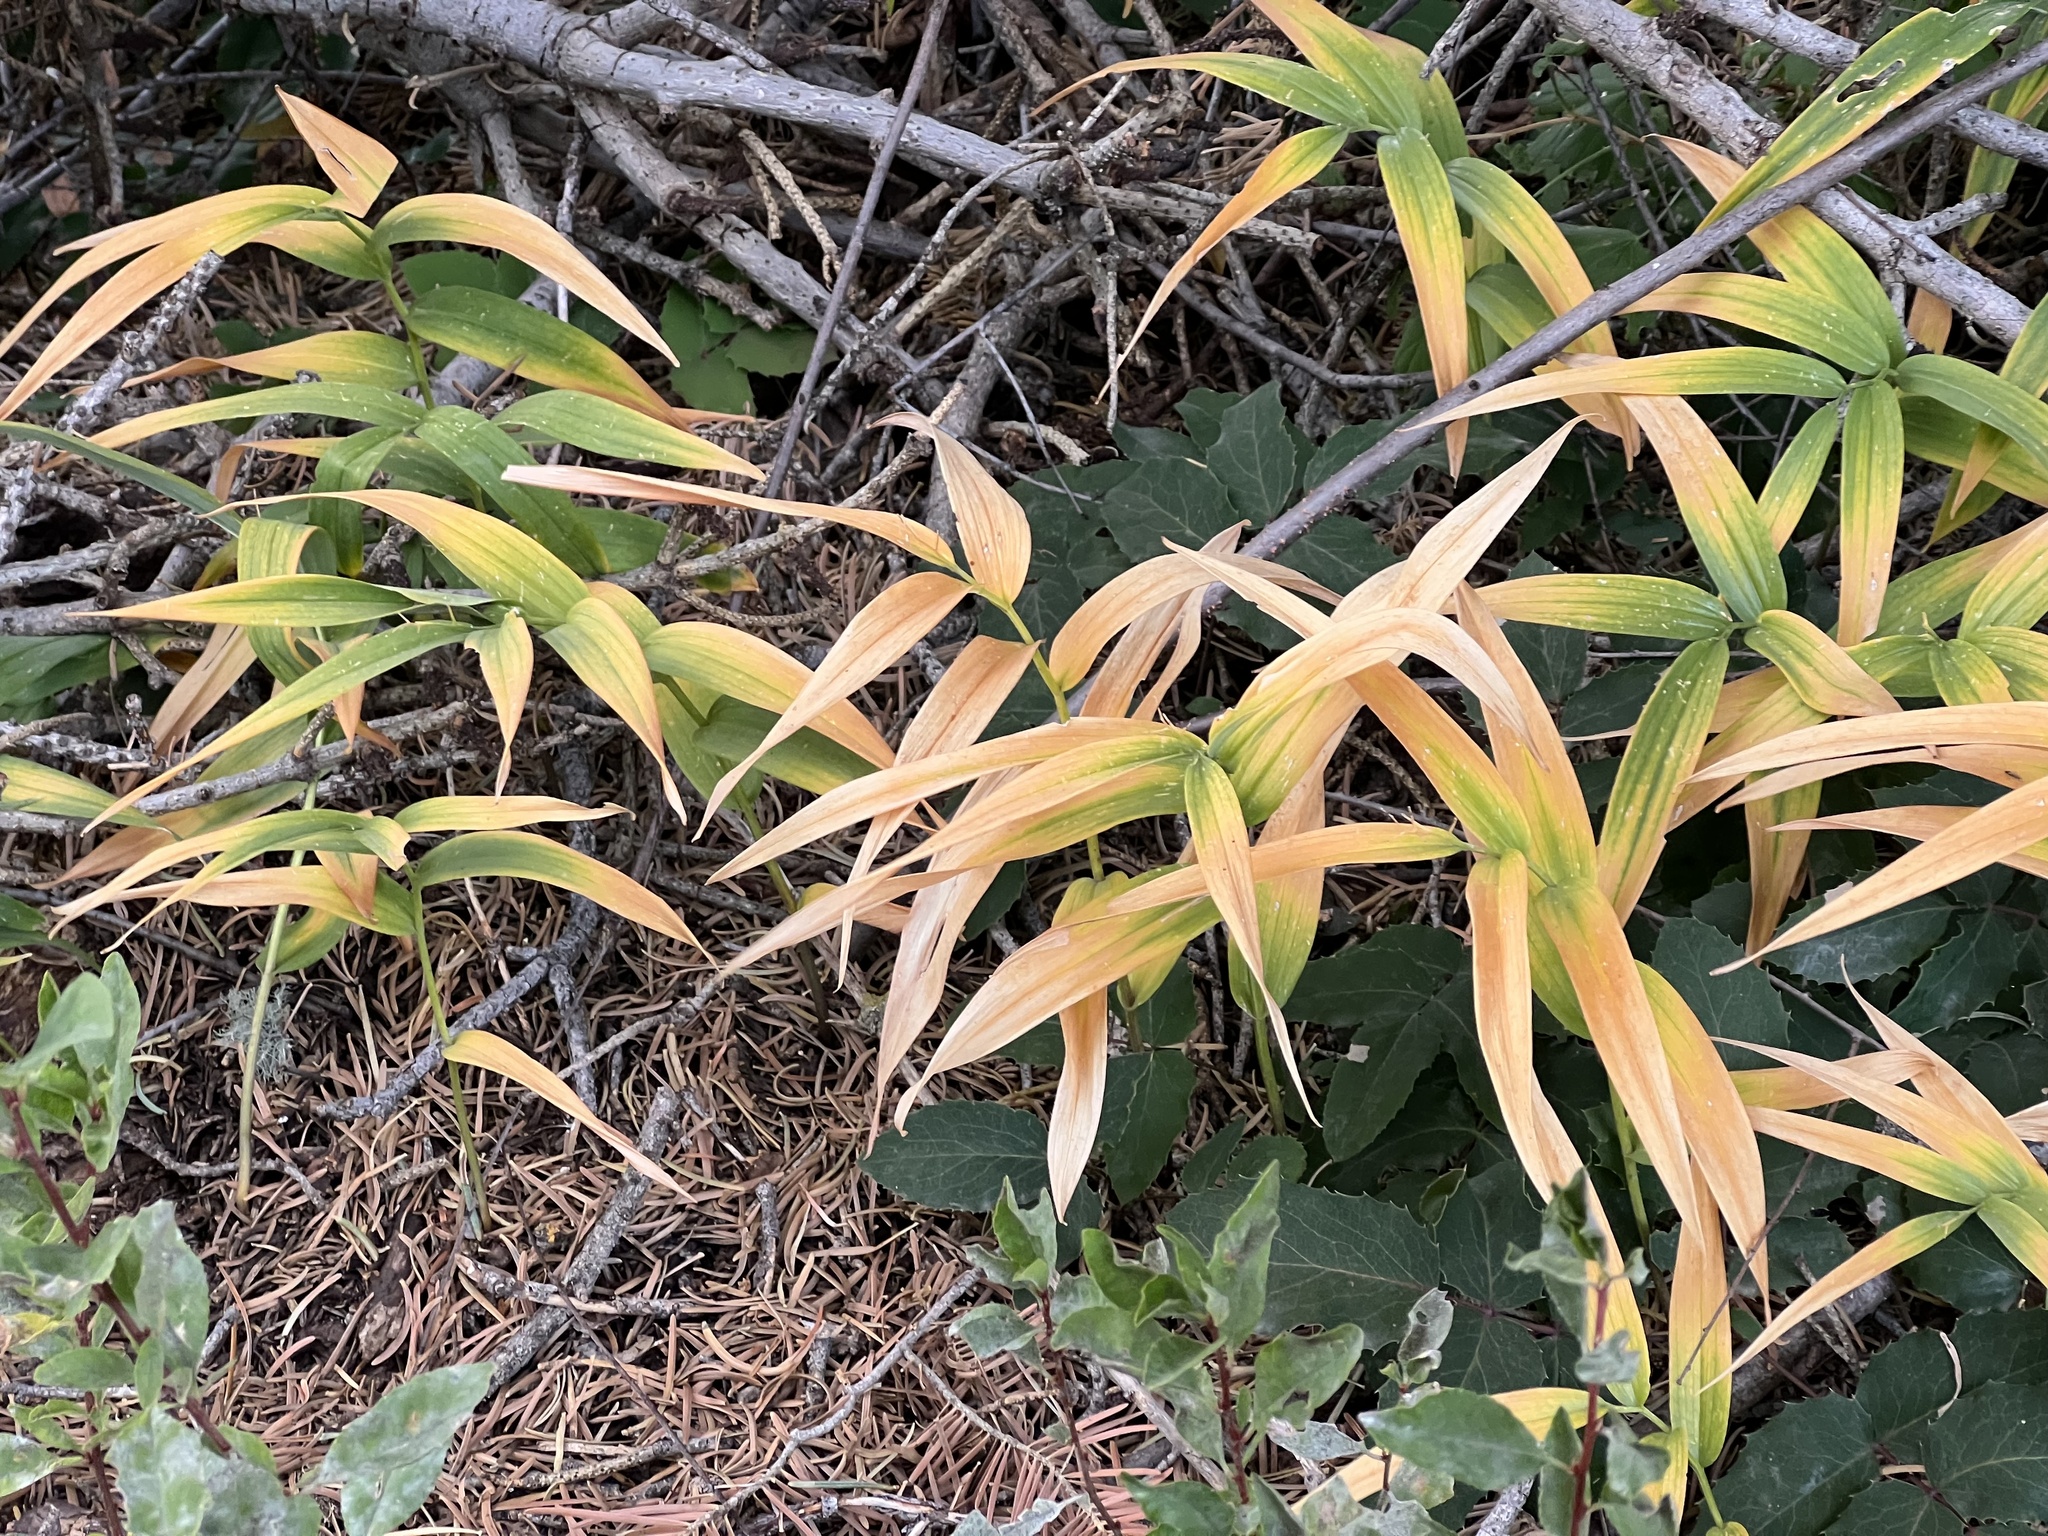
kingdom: Plantae
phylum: Tracheophyta
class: Liliopsida
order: Asparagales
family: Asparagaceae
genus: Maianthemum
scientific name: Maianthemum stellatum
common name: Little false solomon's seal
